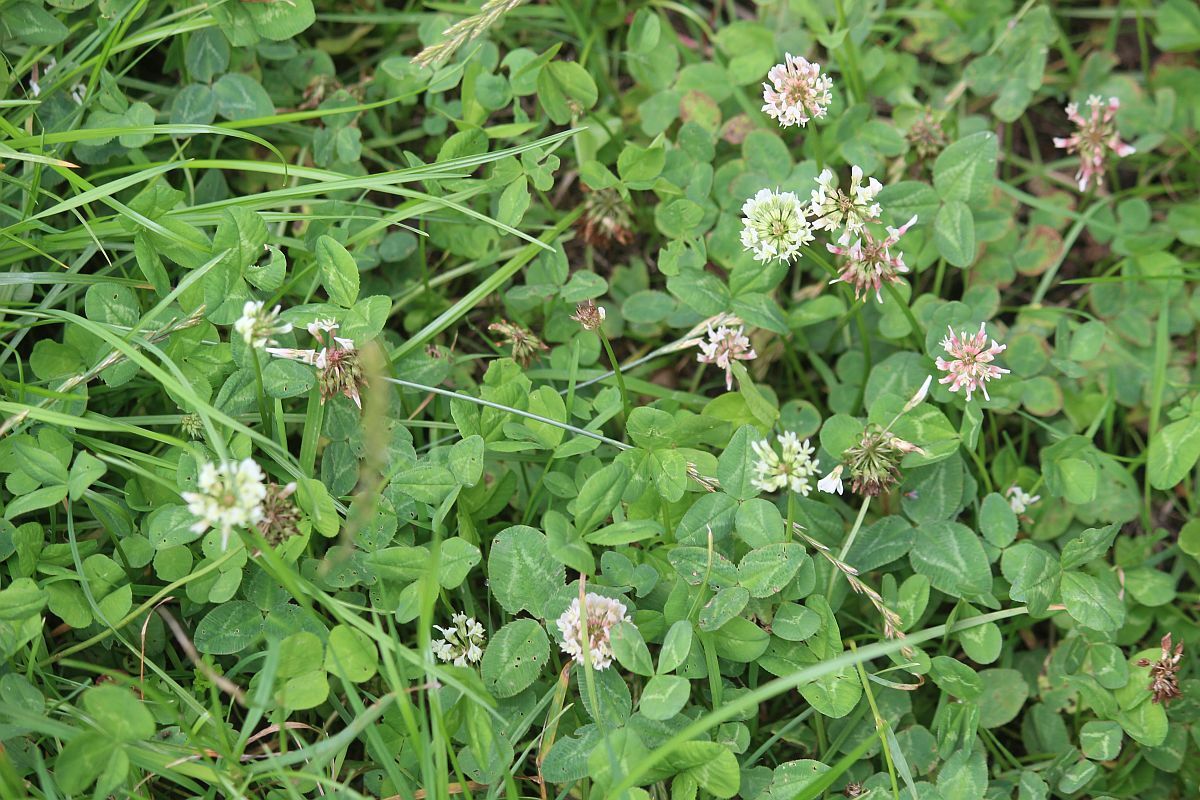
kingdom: Plantae
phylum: Tracheophyta
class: Magnoliopsida
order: Fabales
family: Fabaceae
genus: Trifolium
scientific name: Trifolium repens
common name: White clover
